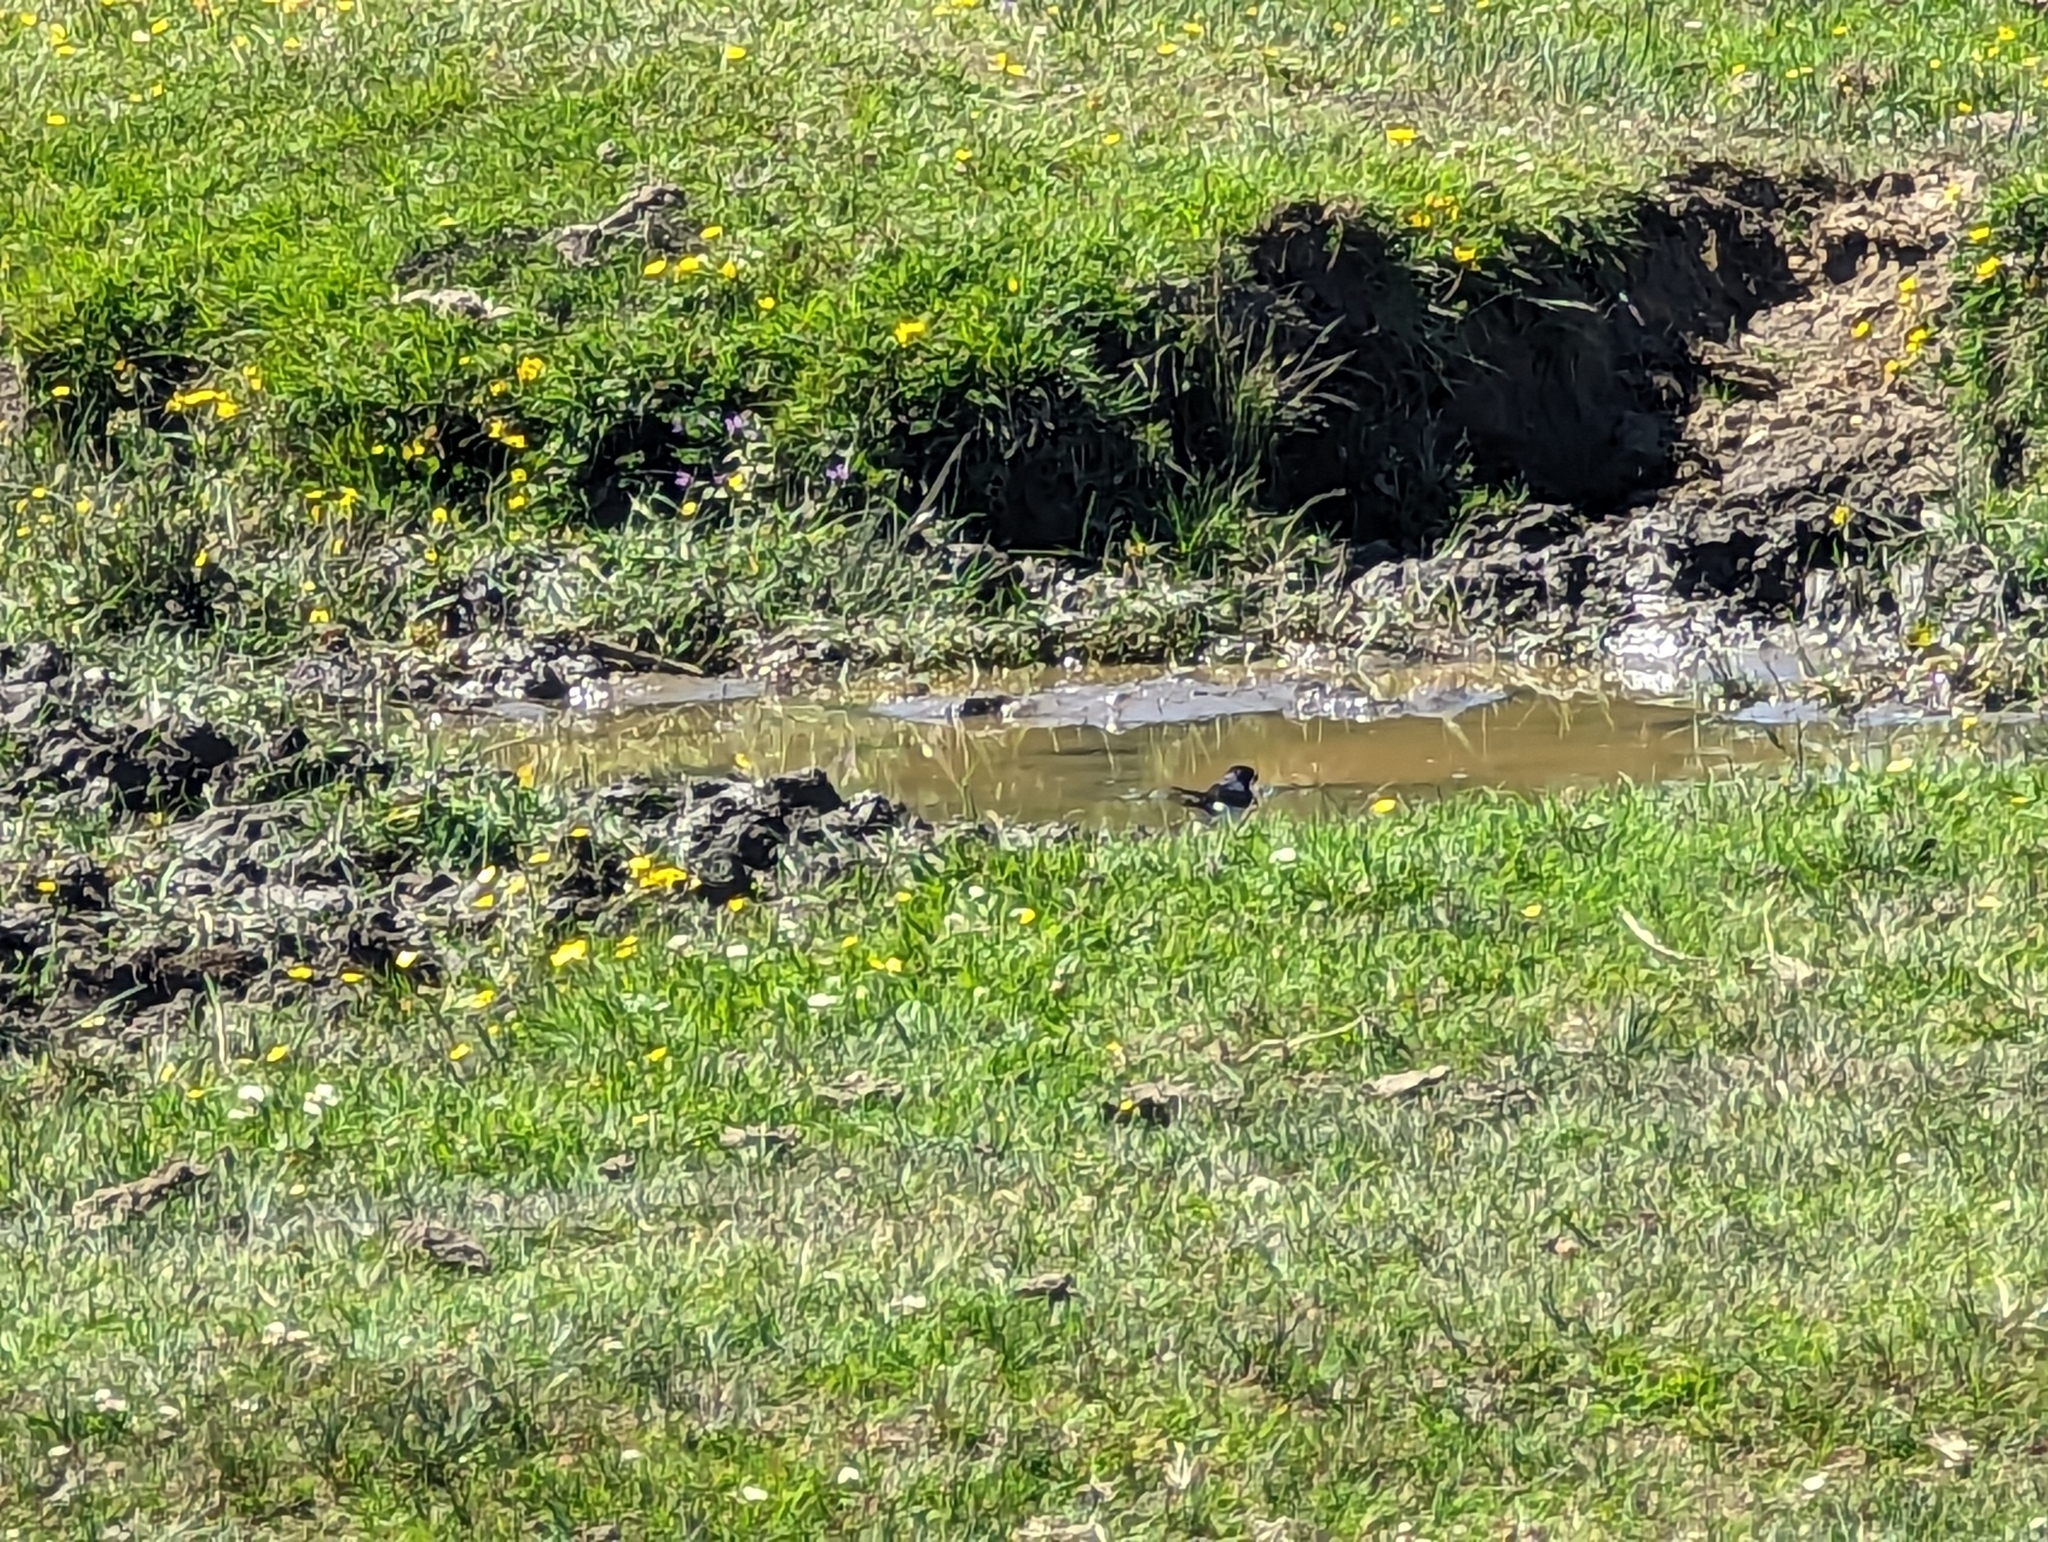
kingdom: Animalia
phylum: Chordata
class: Aves
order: Passeriformes
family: Hirundinidae
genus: Delichon
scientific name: Delichon urbicum
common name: Common house martin
